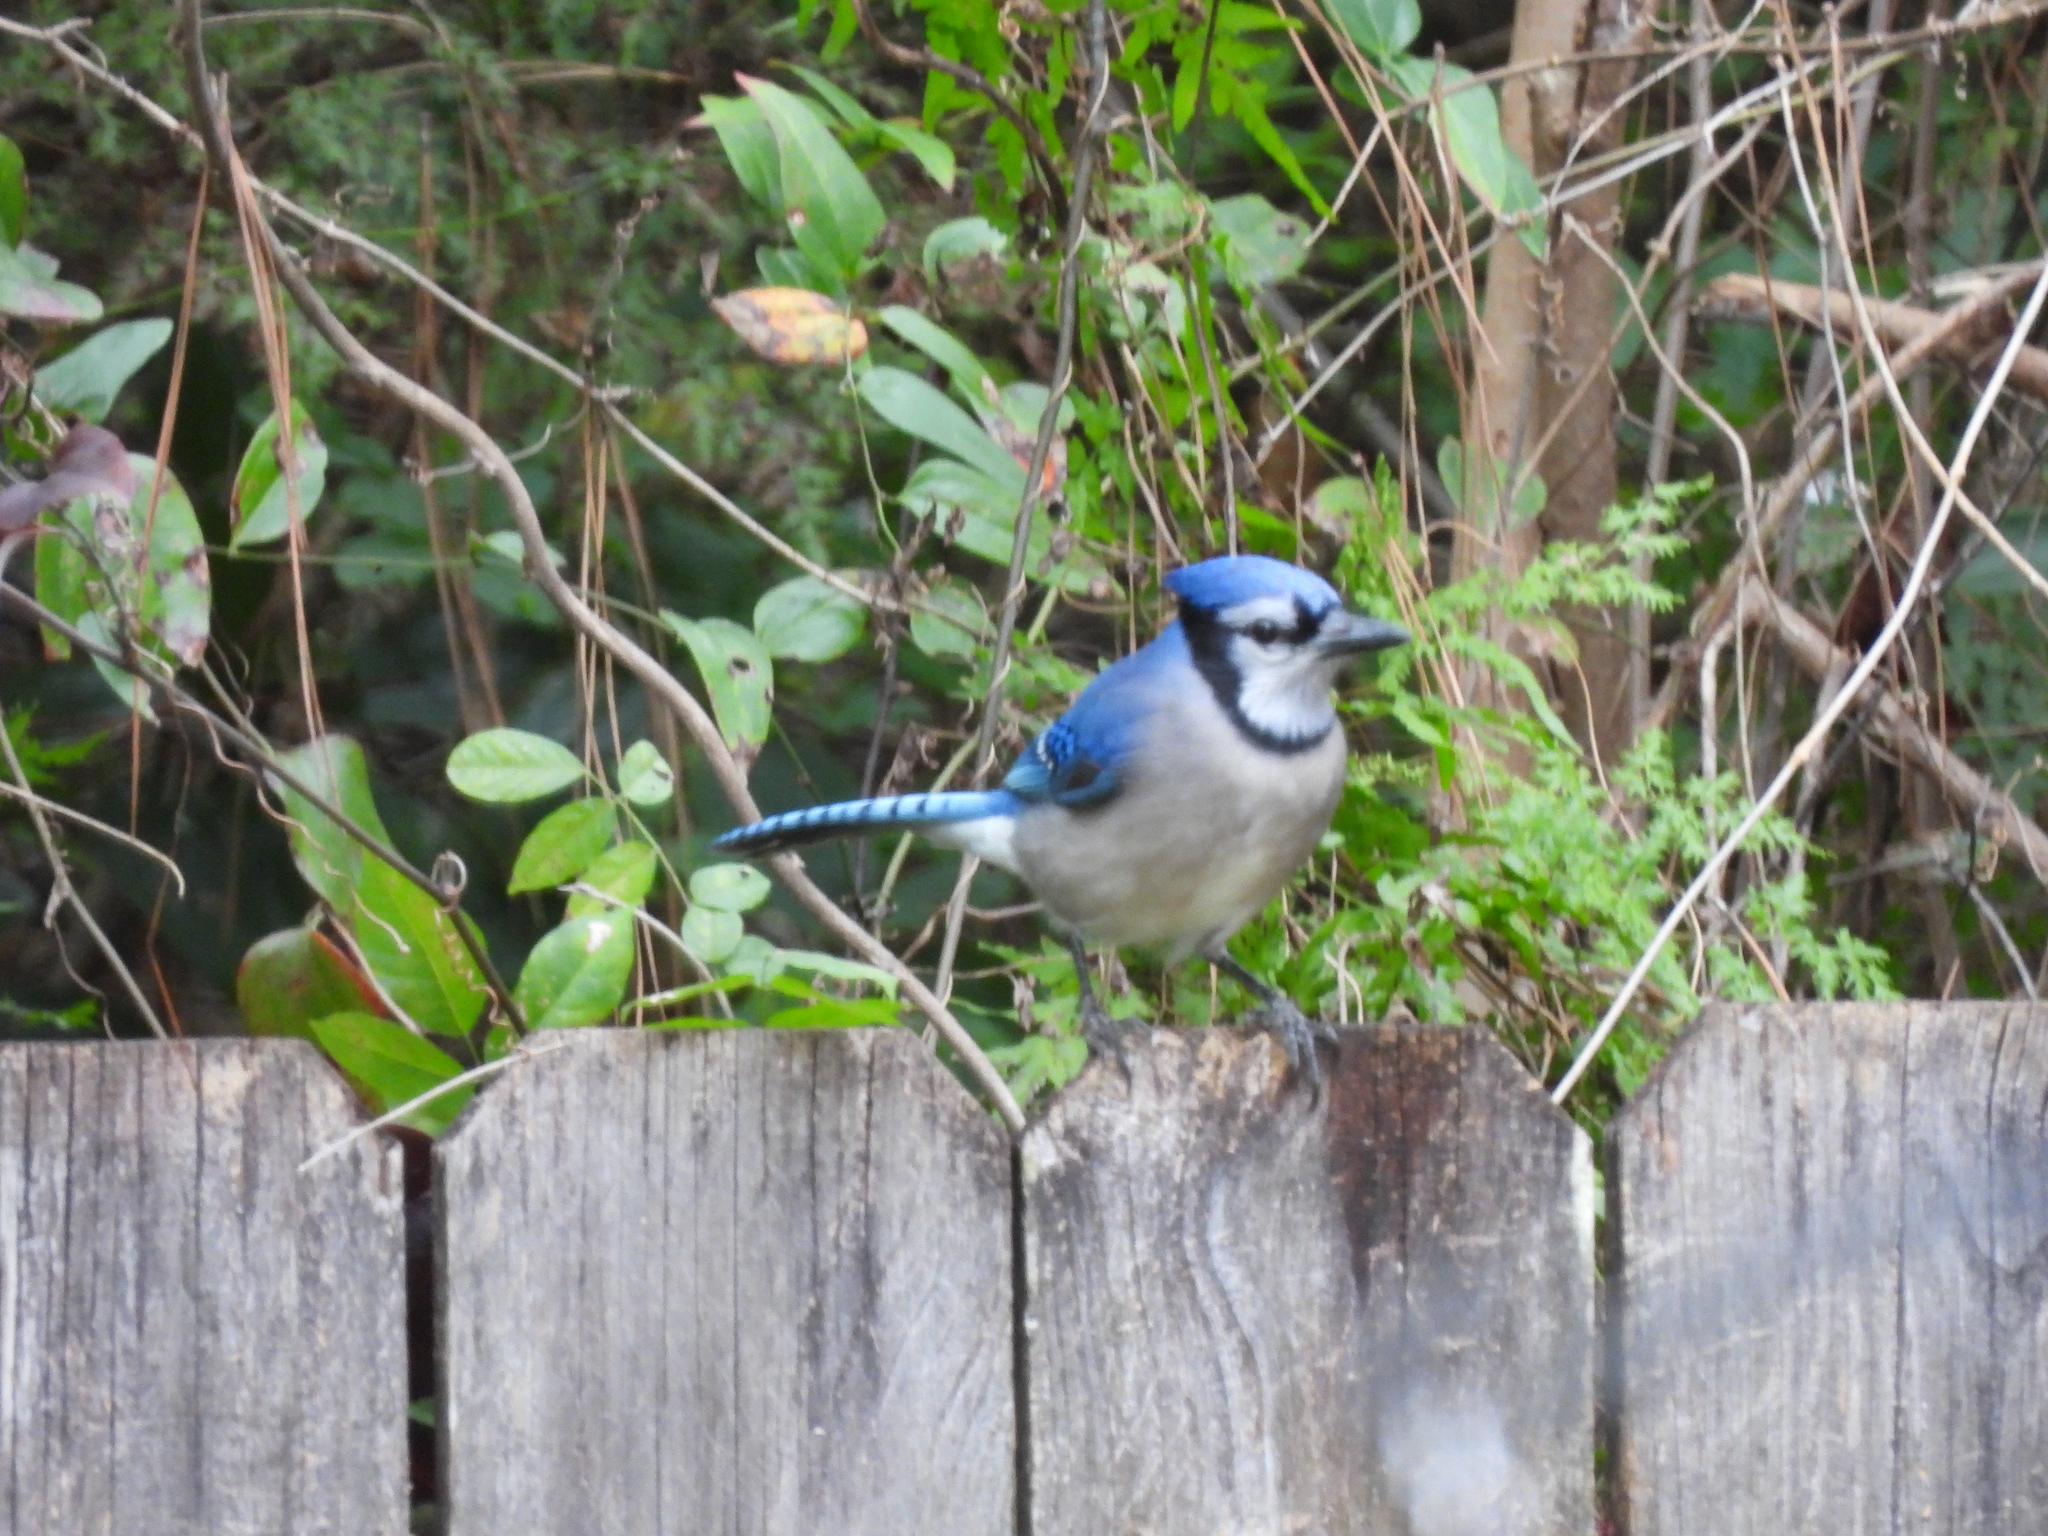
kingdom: Animalia
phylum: Chordata
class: Aves
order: Passeriformes
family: Corvidae
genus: Cyanocitta
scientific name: Cyanocitta cristata
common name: Blue jay
